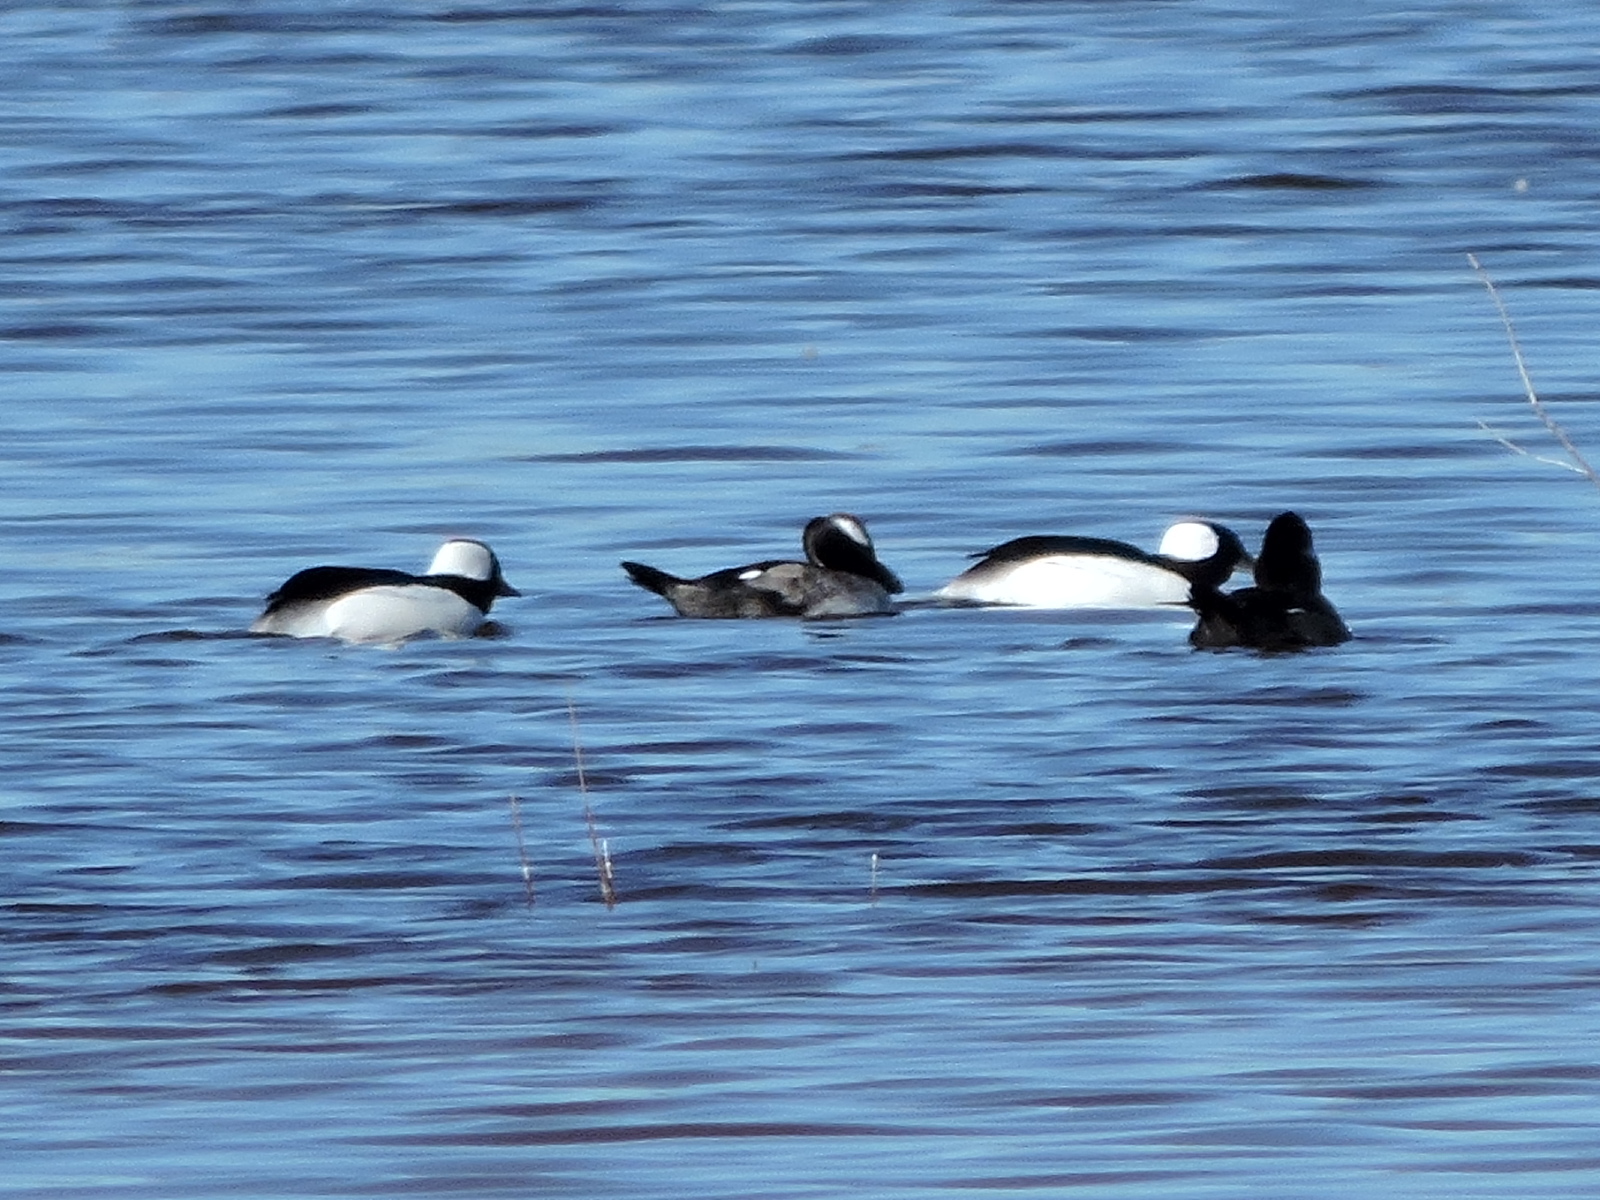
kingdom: Animalia
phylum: Chordata
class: Aves
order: Anseriformes
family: Anatidae
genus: Bucephala
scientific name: Bucephala albeola
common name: Bufflehead
